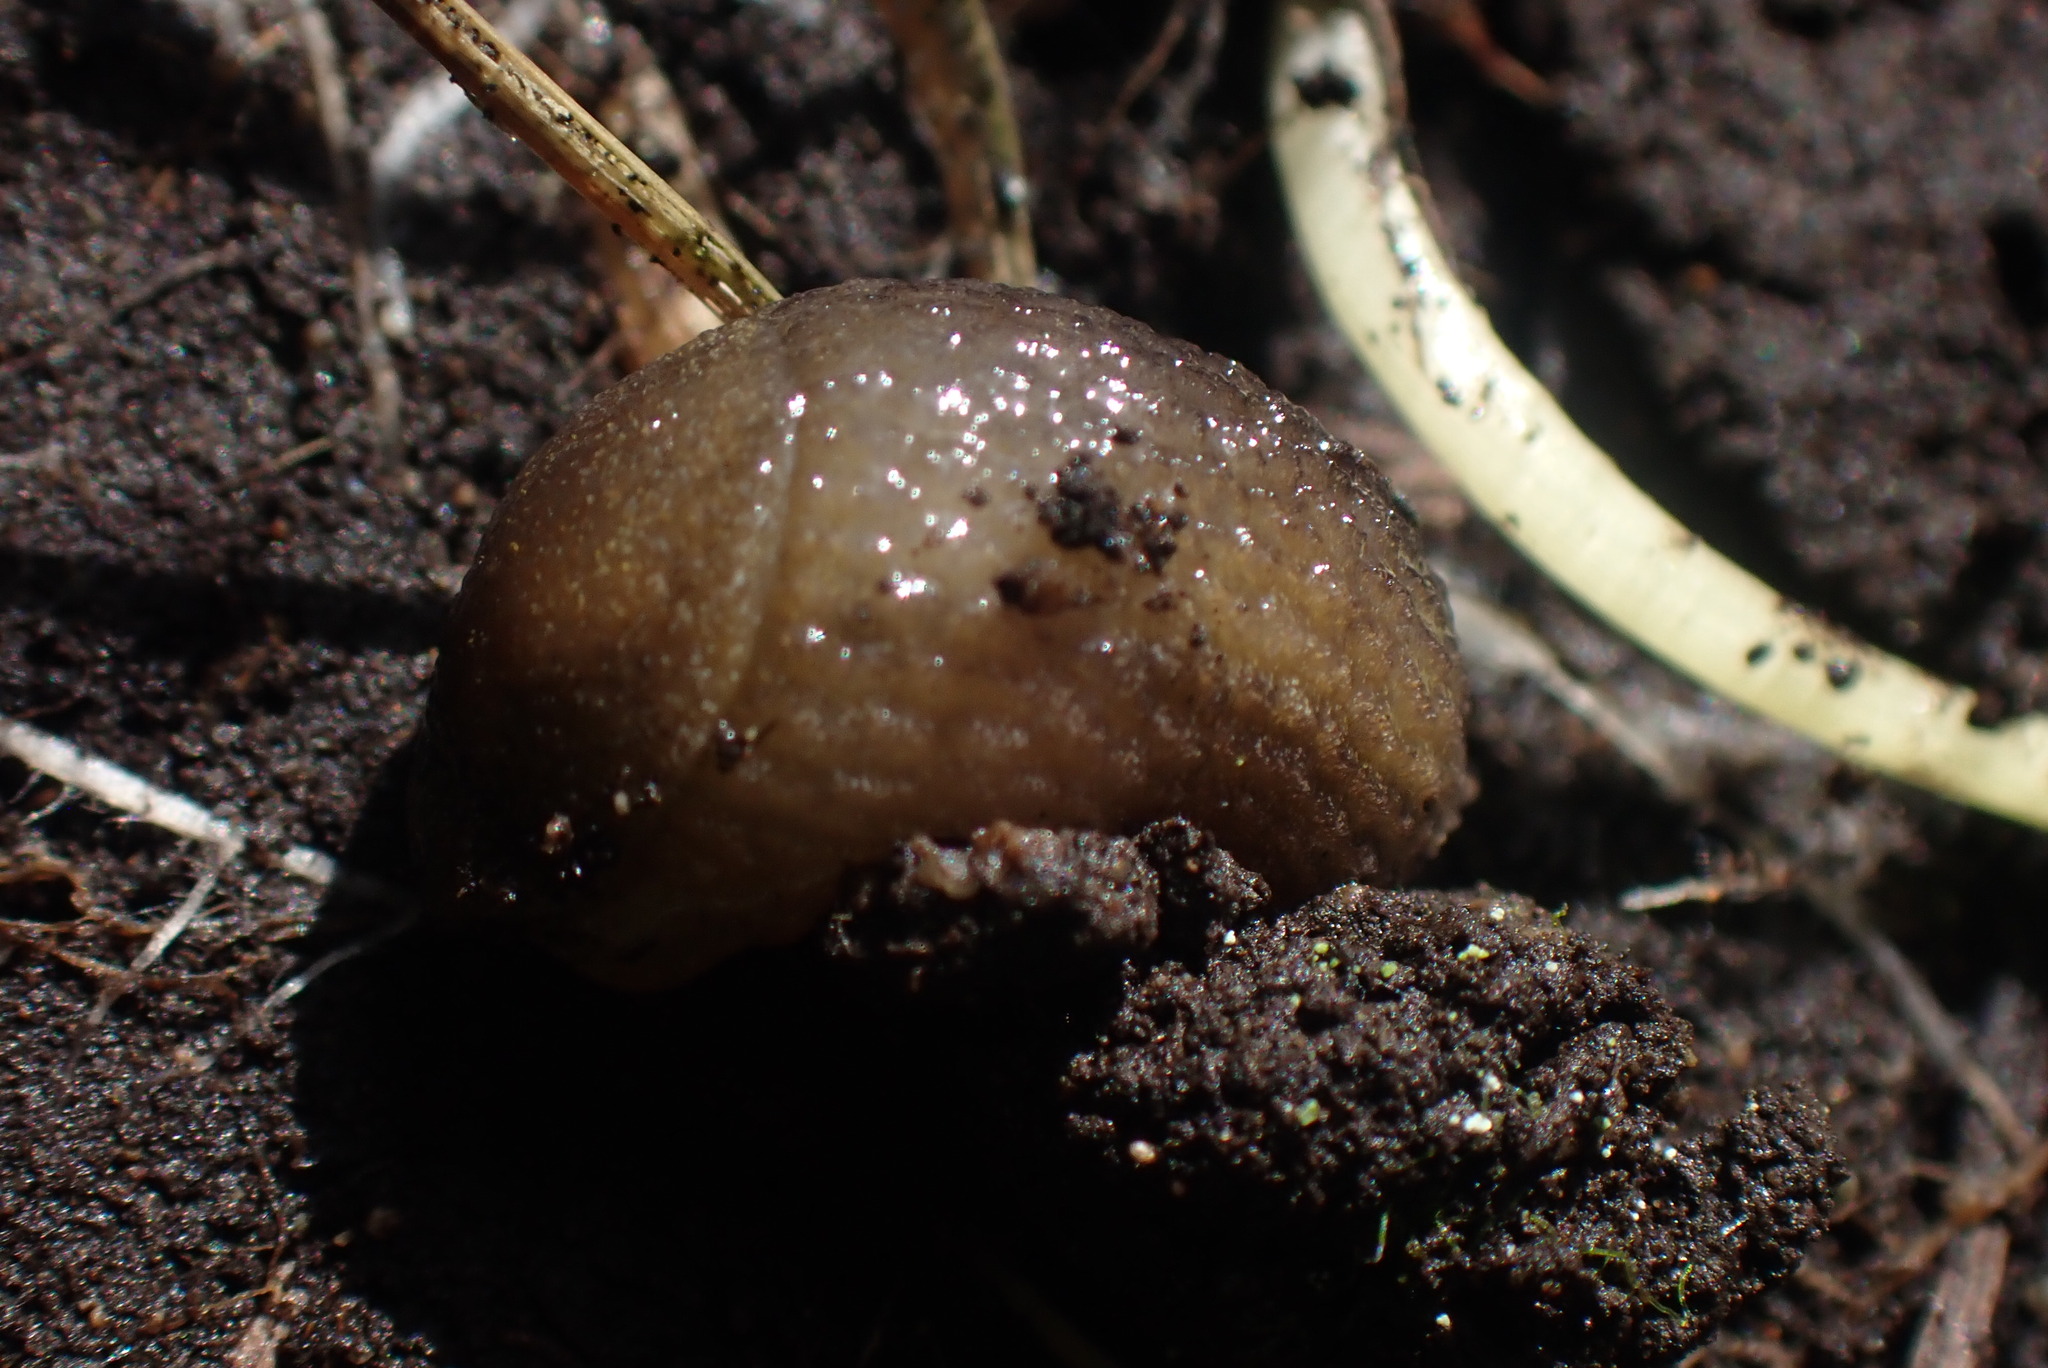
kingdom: Animalia
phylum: Mollusca
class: Gastropoda
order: Stylommatophora
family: Arionidae
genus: Arion
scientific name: Arion intermedius
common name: Hedgehog slug
